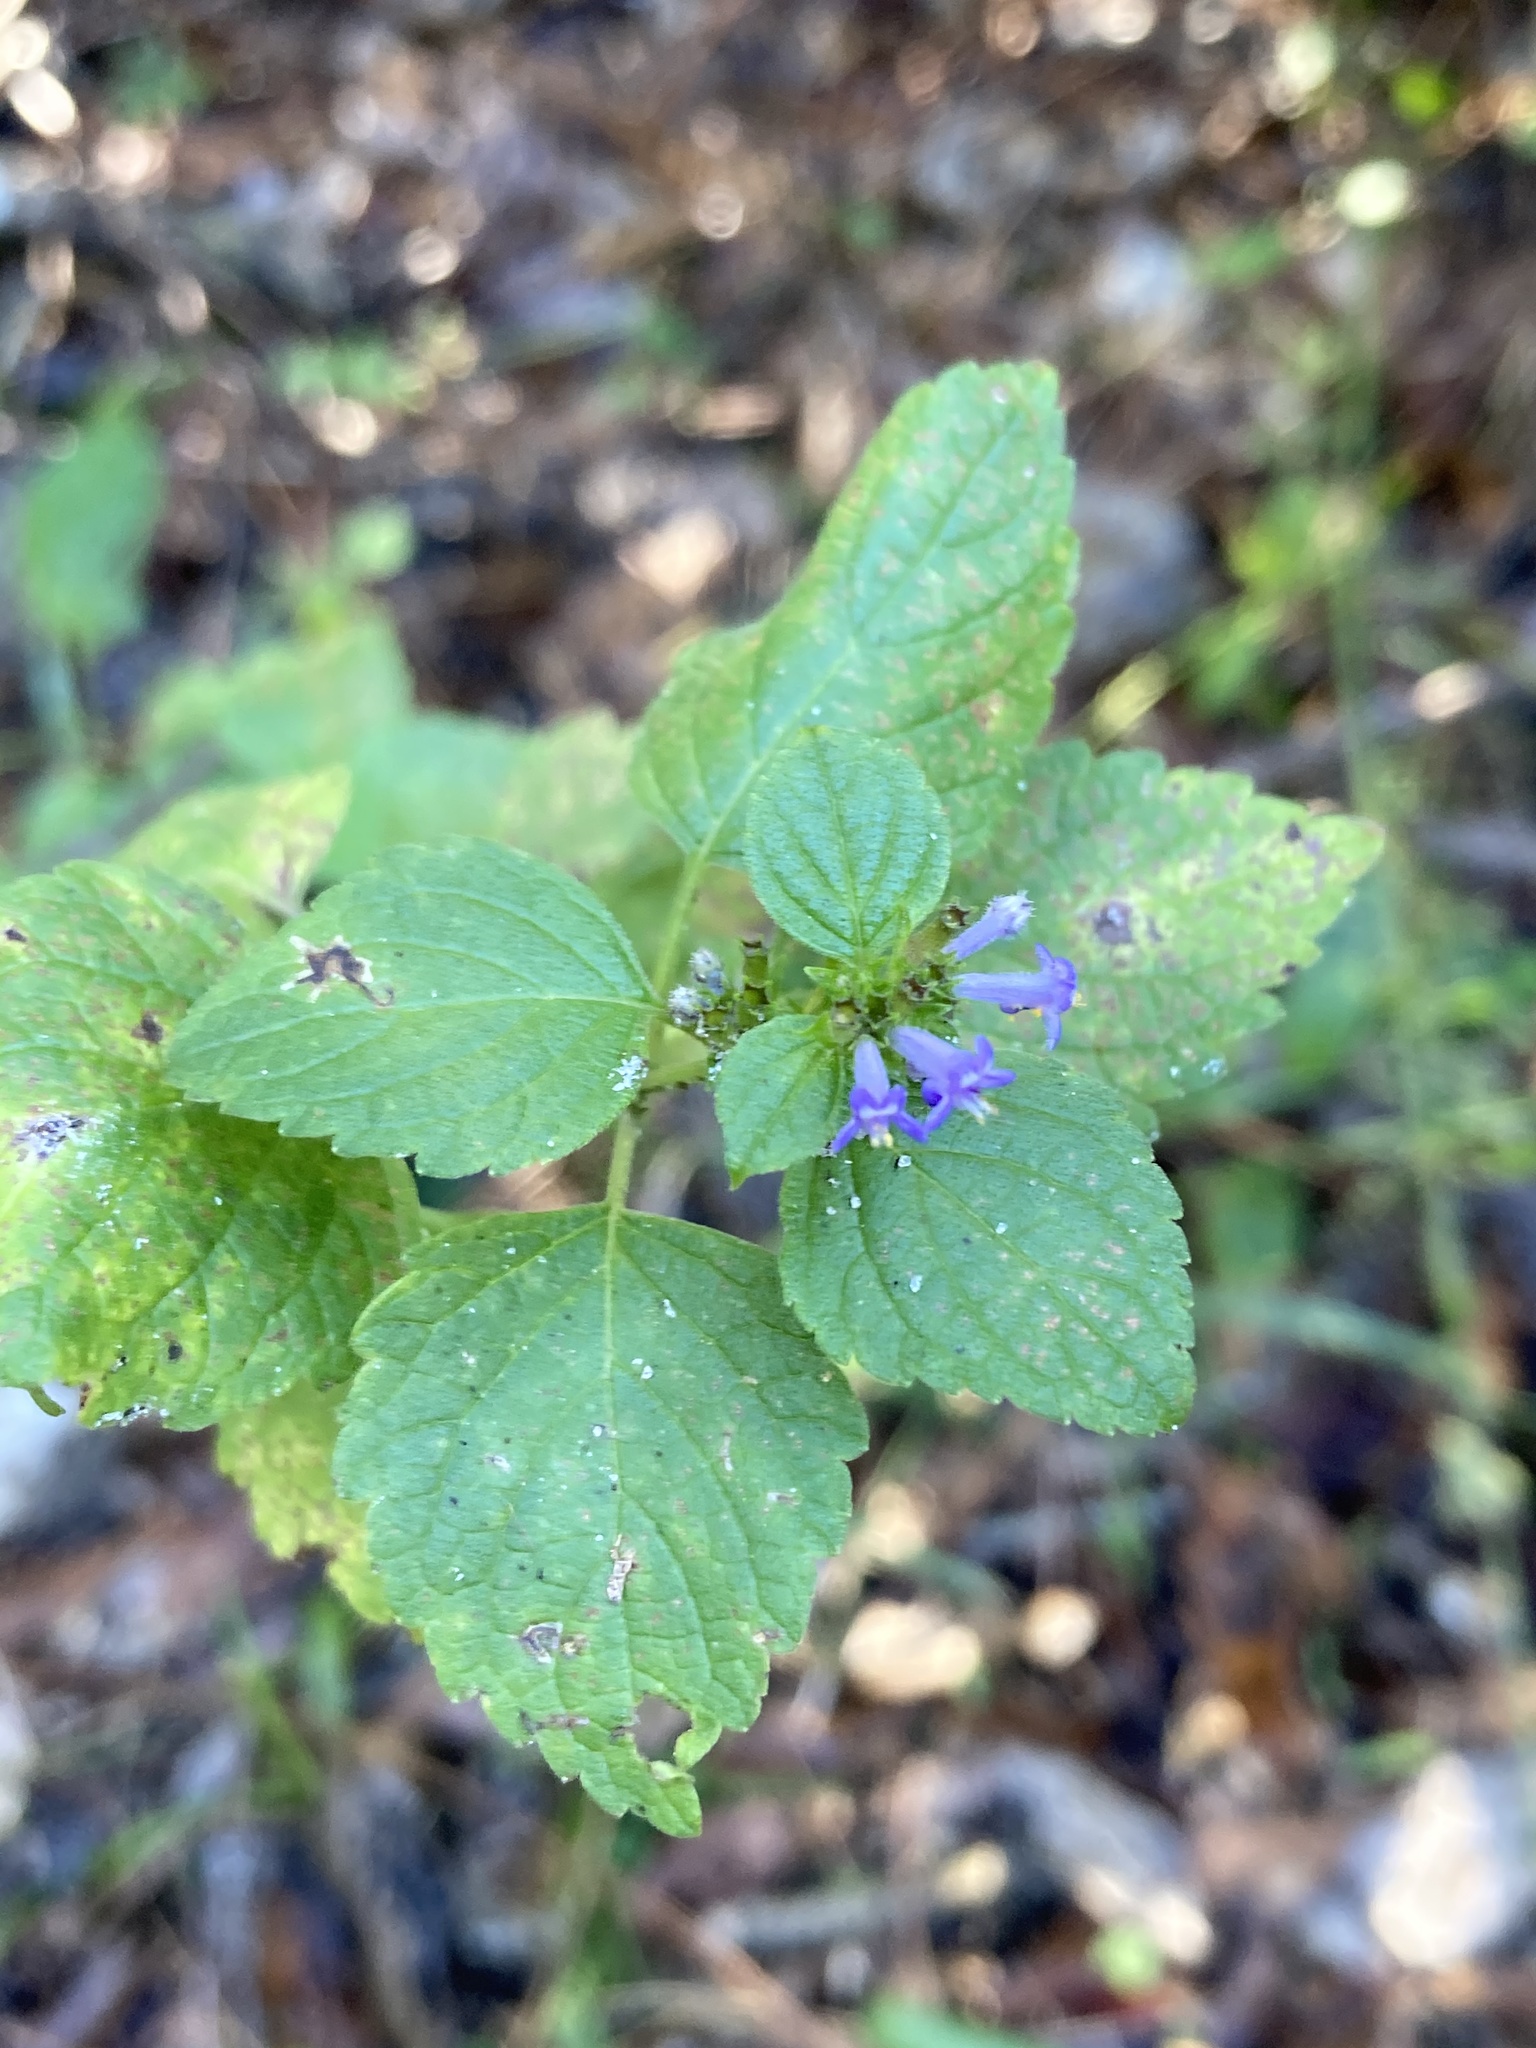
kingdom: Plantae
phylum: Tracheophyta
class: Magnoliopsida
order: Lamiales
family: Lamiaceae
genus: Cantinoa
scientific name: Cantinoa mutabilis
